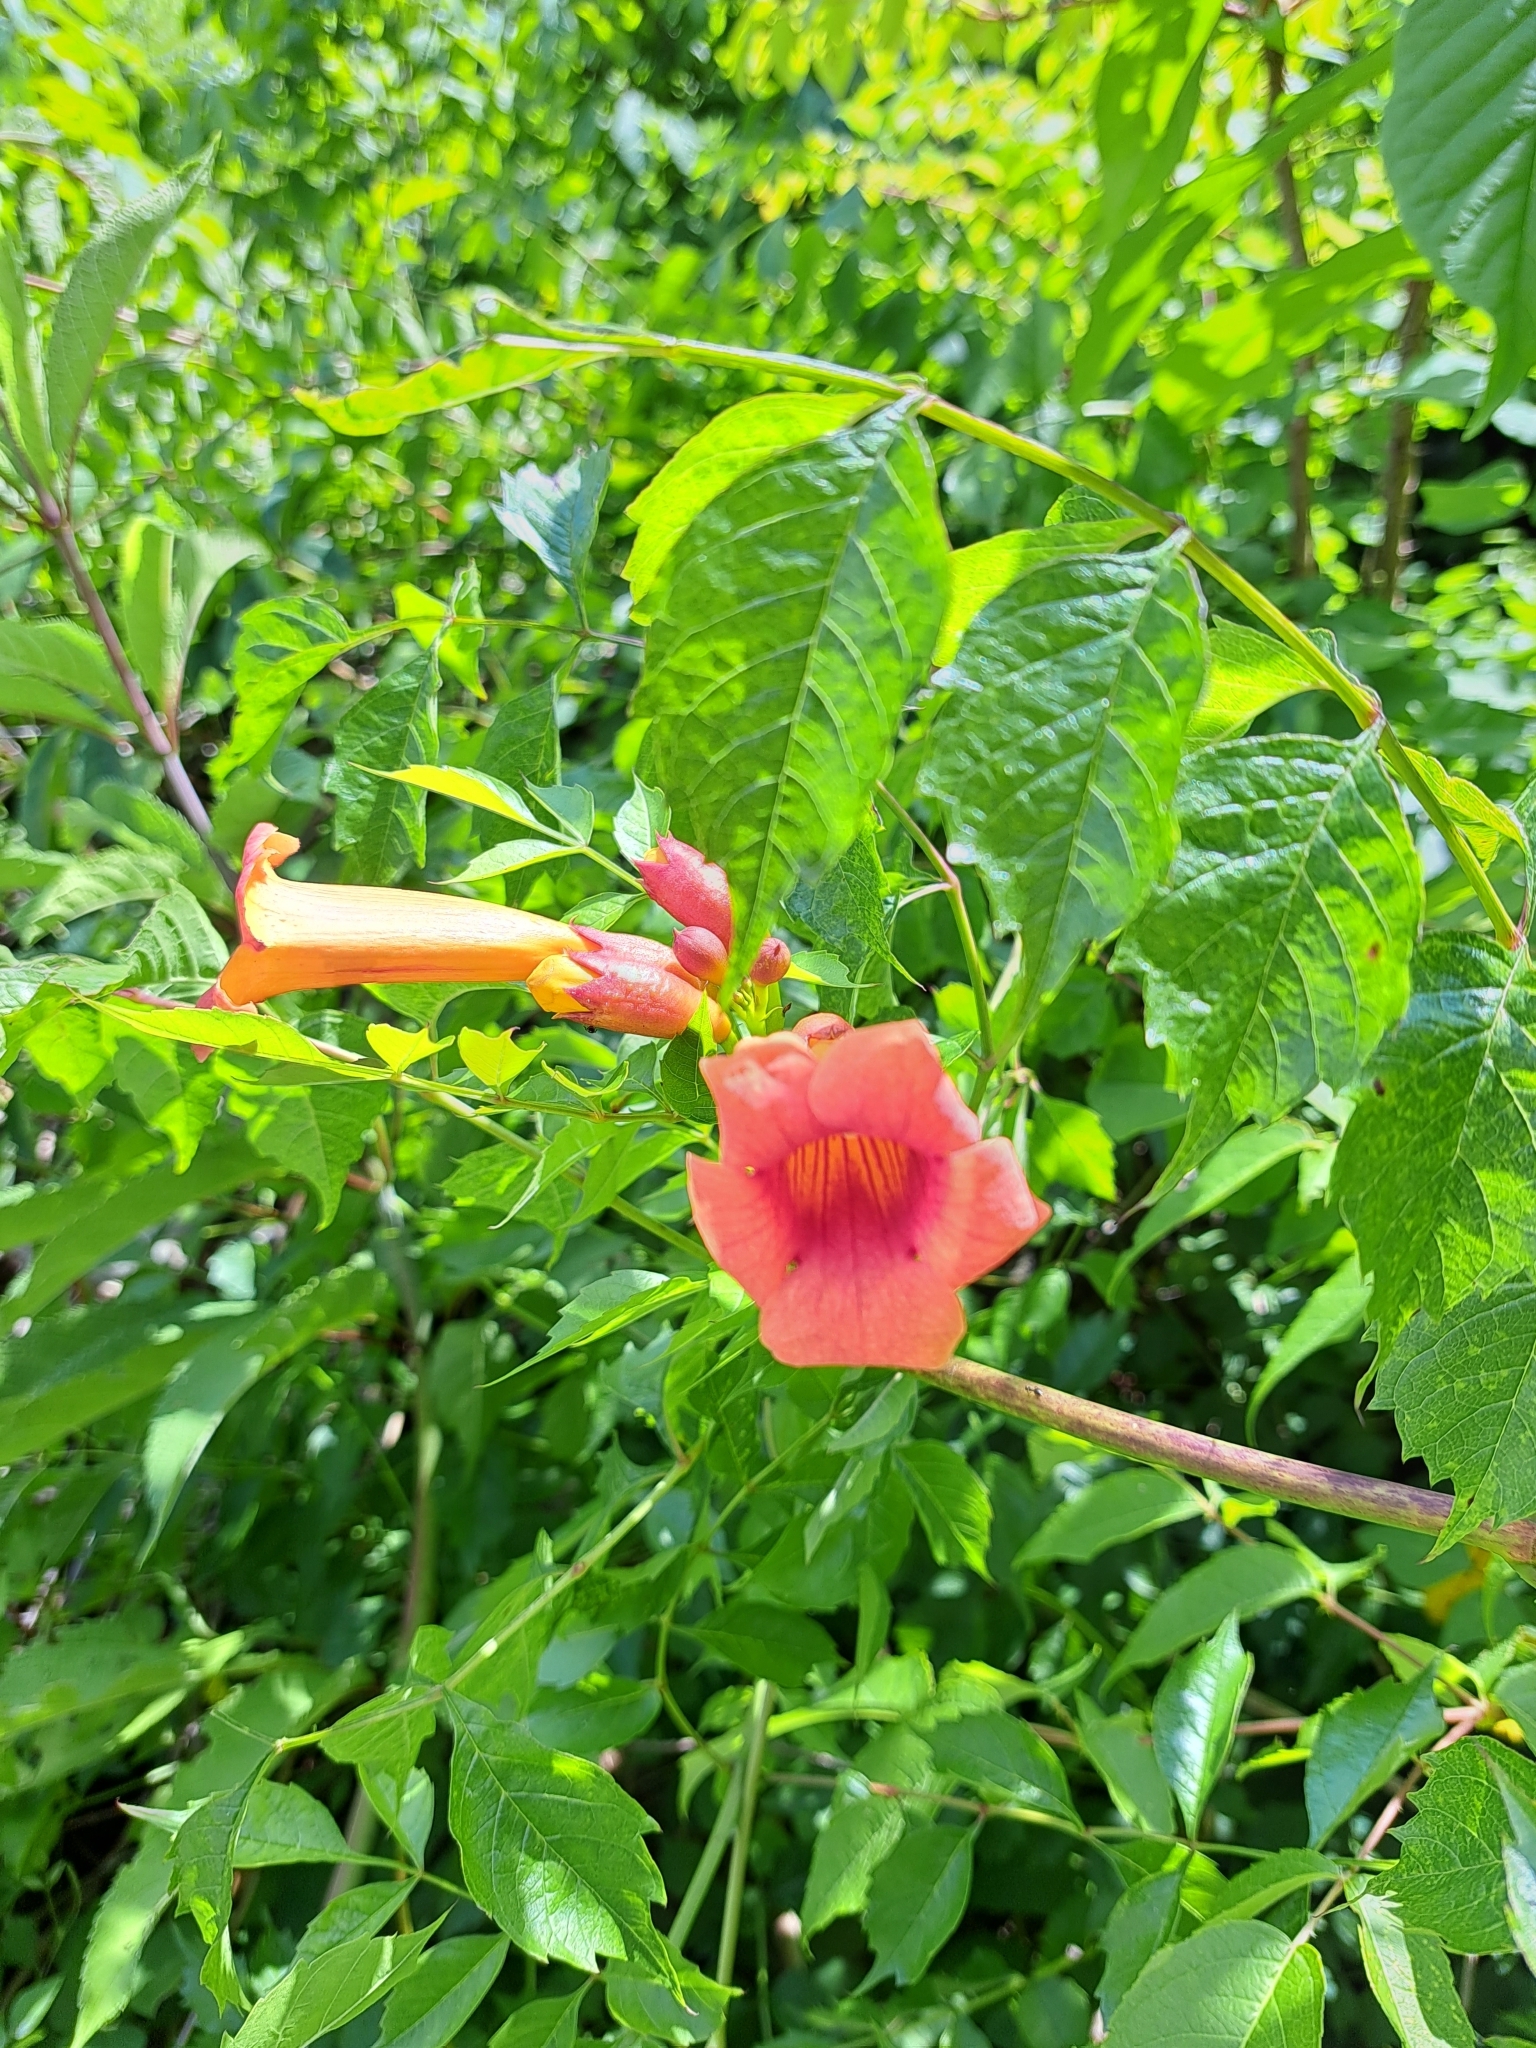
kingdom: Plantae
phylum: Tracheophyta
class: Magnoliopsida
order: Lamiales
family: Bignoniaceae
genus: Campsis
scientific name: Campsis radicans
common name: Trumpet-creeper
